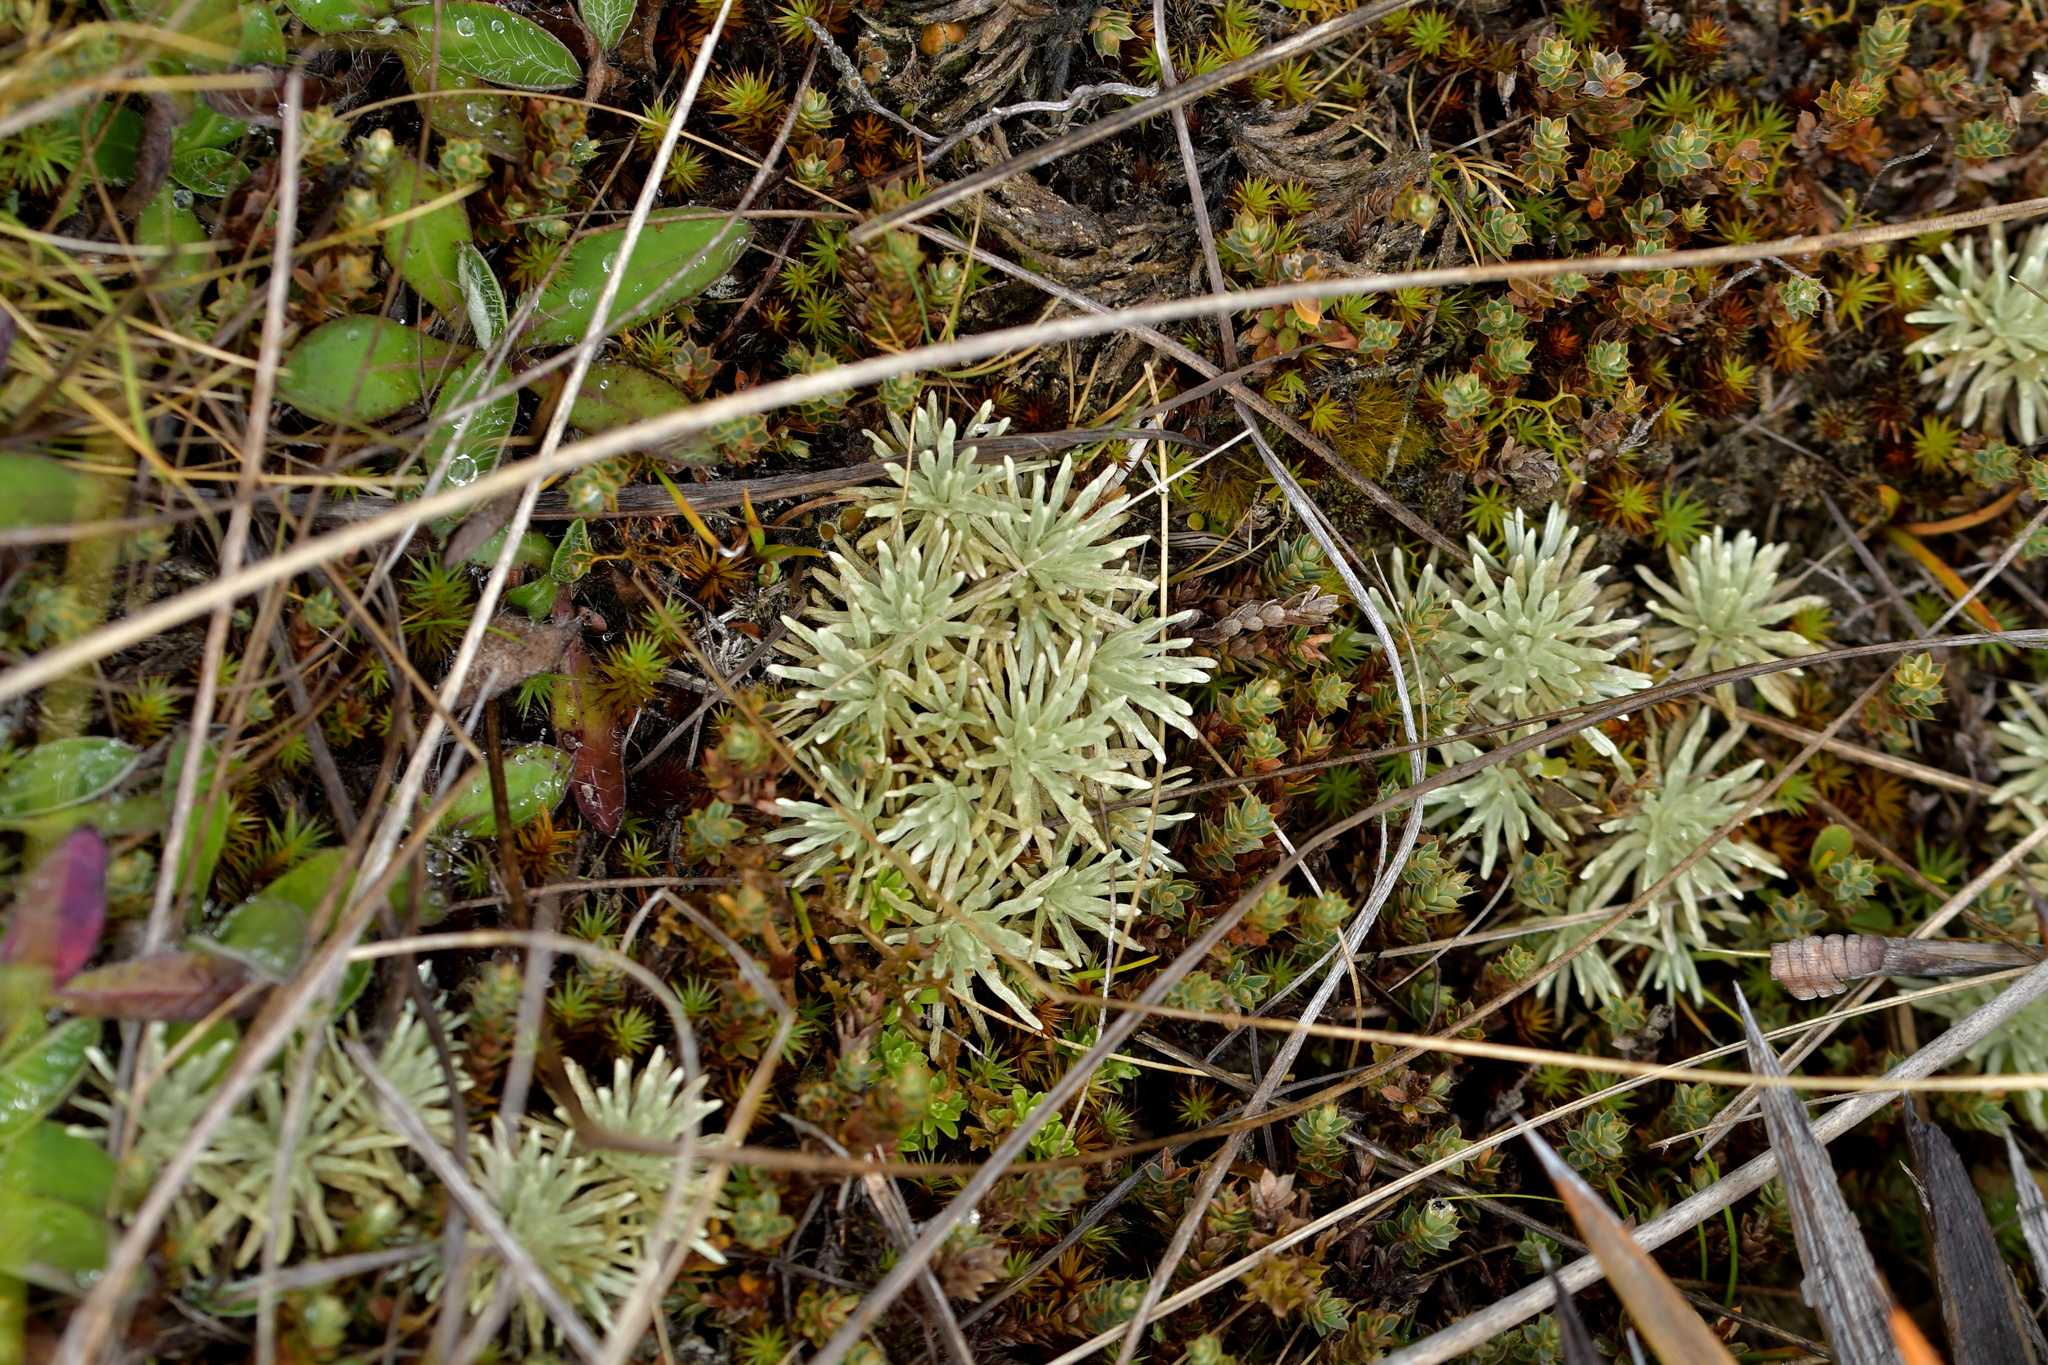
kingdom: Plantae
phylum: Tracheophyta
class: Magnoliopsida
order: Asterales
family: Asteraceae
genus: Celmisia
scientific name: Celmisia argentea
